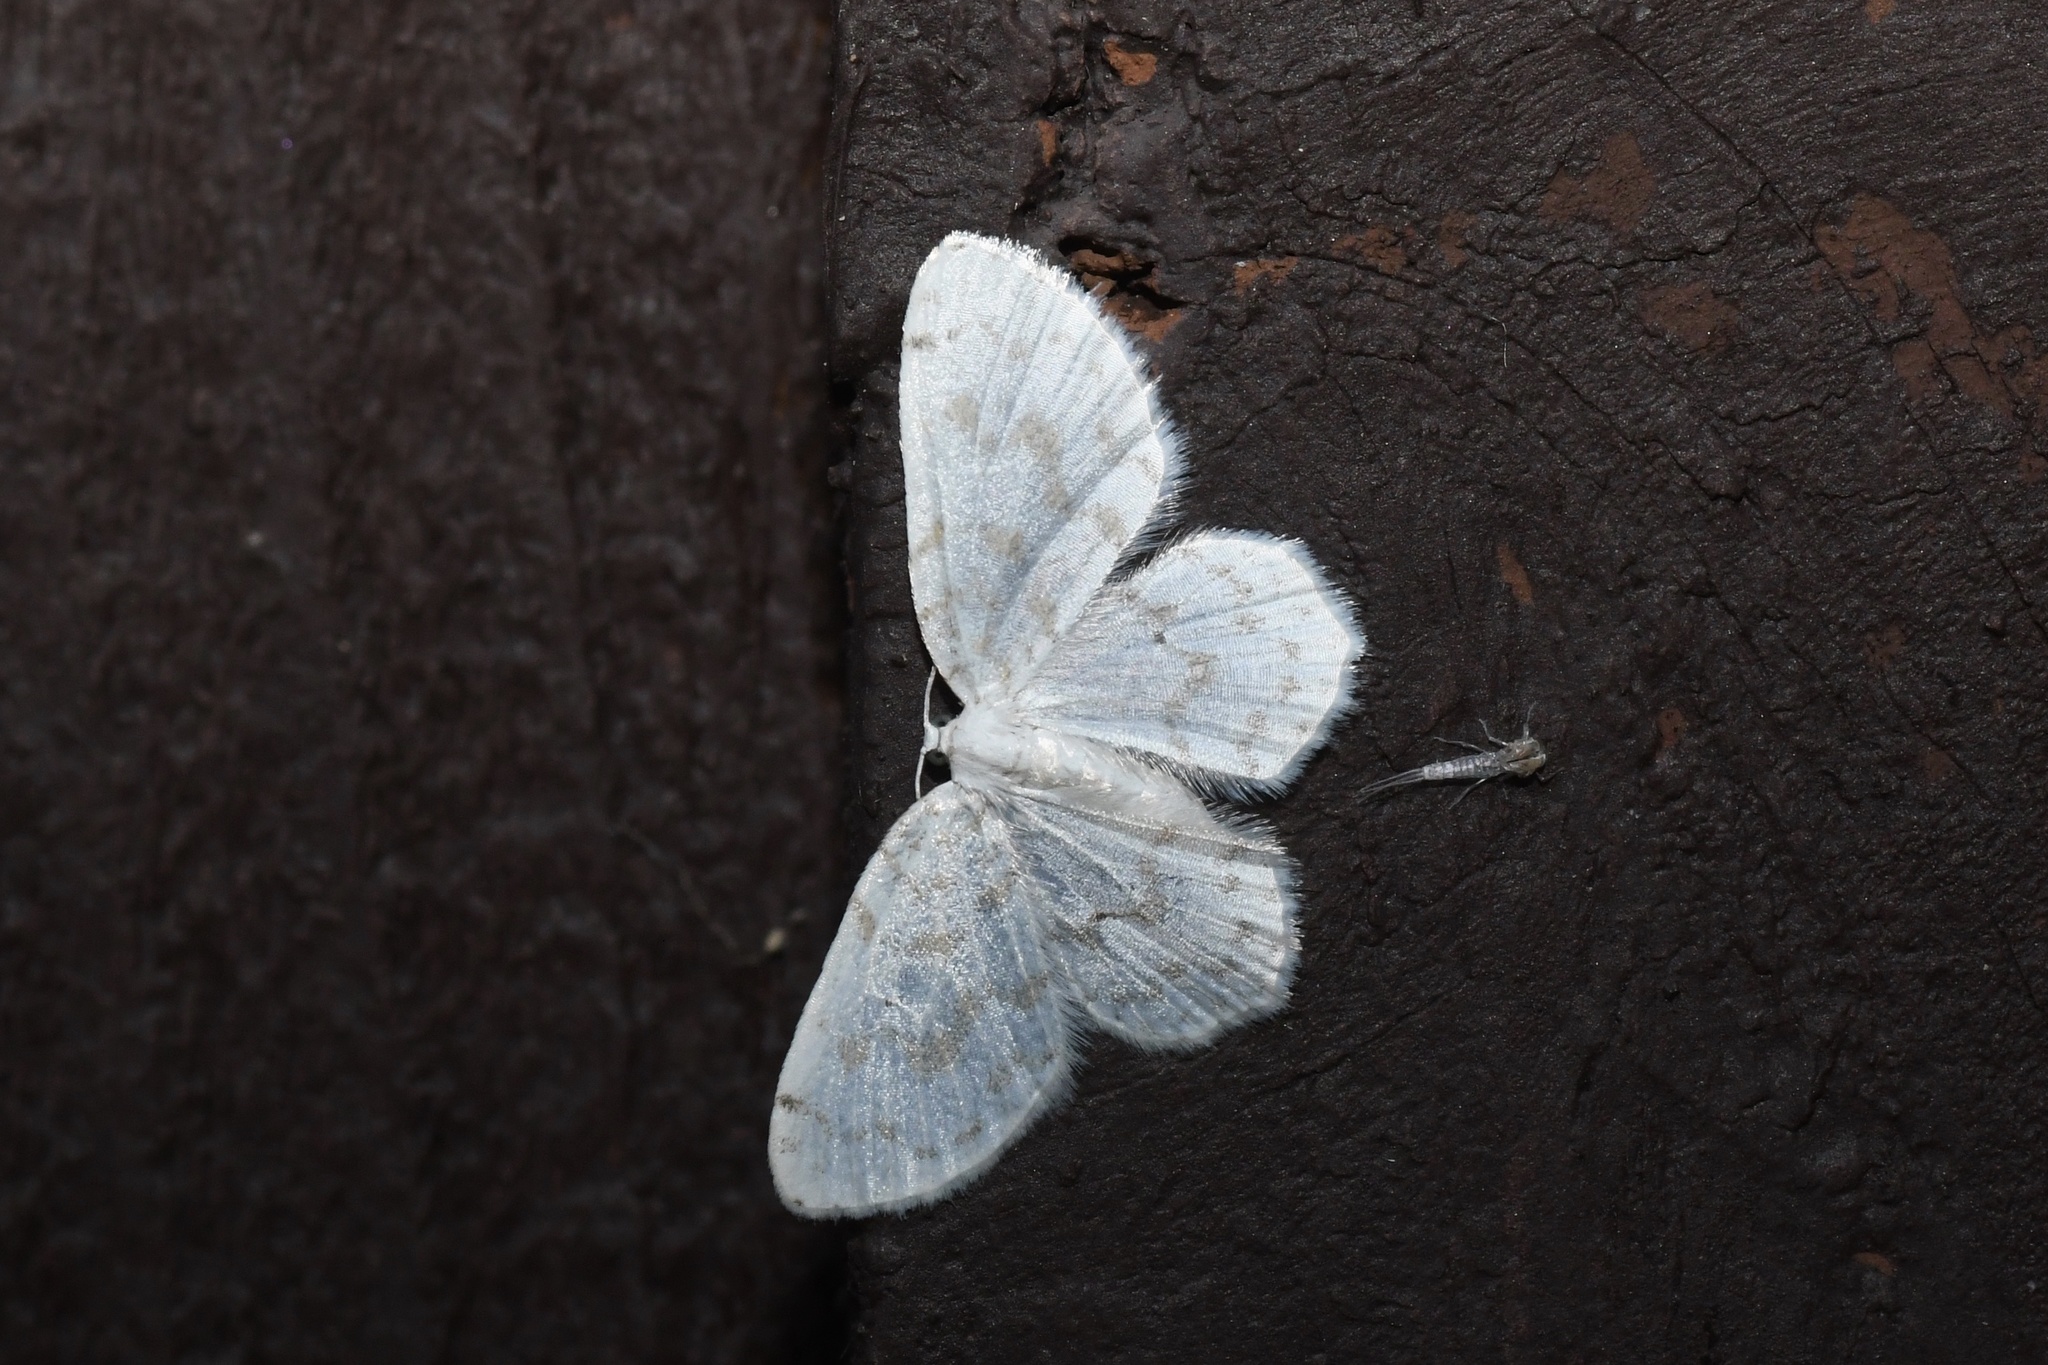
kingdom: Animalia
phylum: Arthropoda
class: Insecta
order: Lepidoptera
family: Geometridae
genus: Hydrelia
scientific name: Hydrelia albifera
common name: Fragile white carpet
